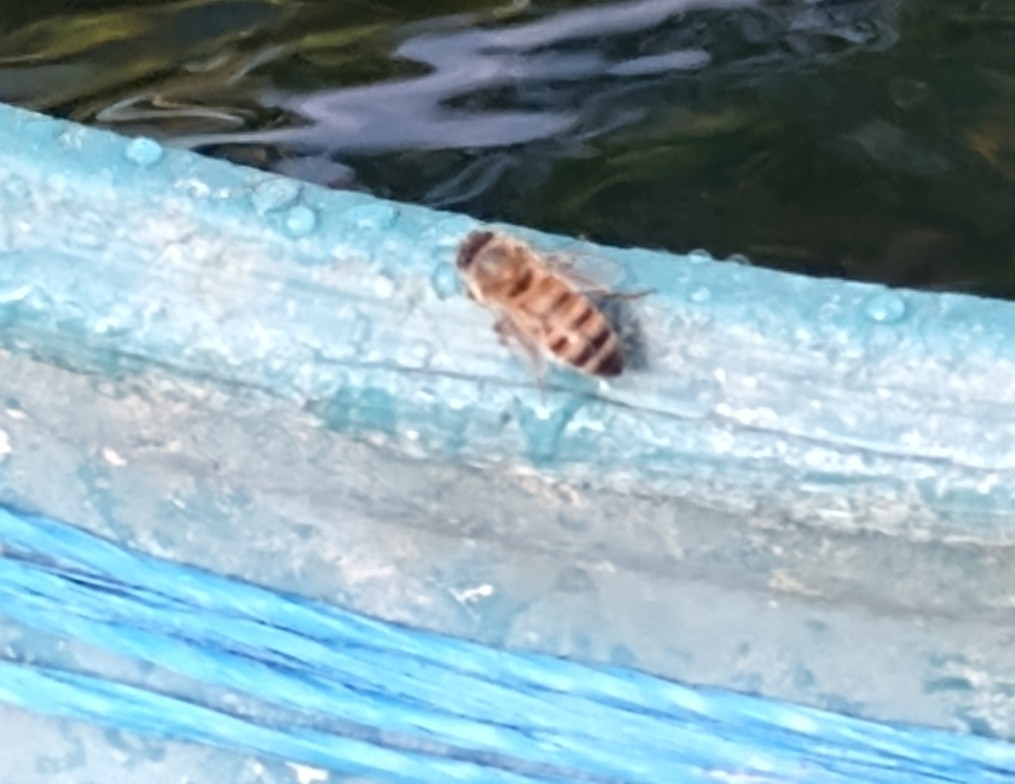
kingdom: Animalia
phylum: Arthropoda
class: Insecta
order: Hymenoptera
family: Apidae
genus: Apis
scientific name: Apis mellifera
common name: Honey bee
